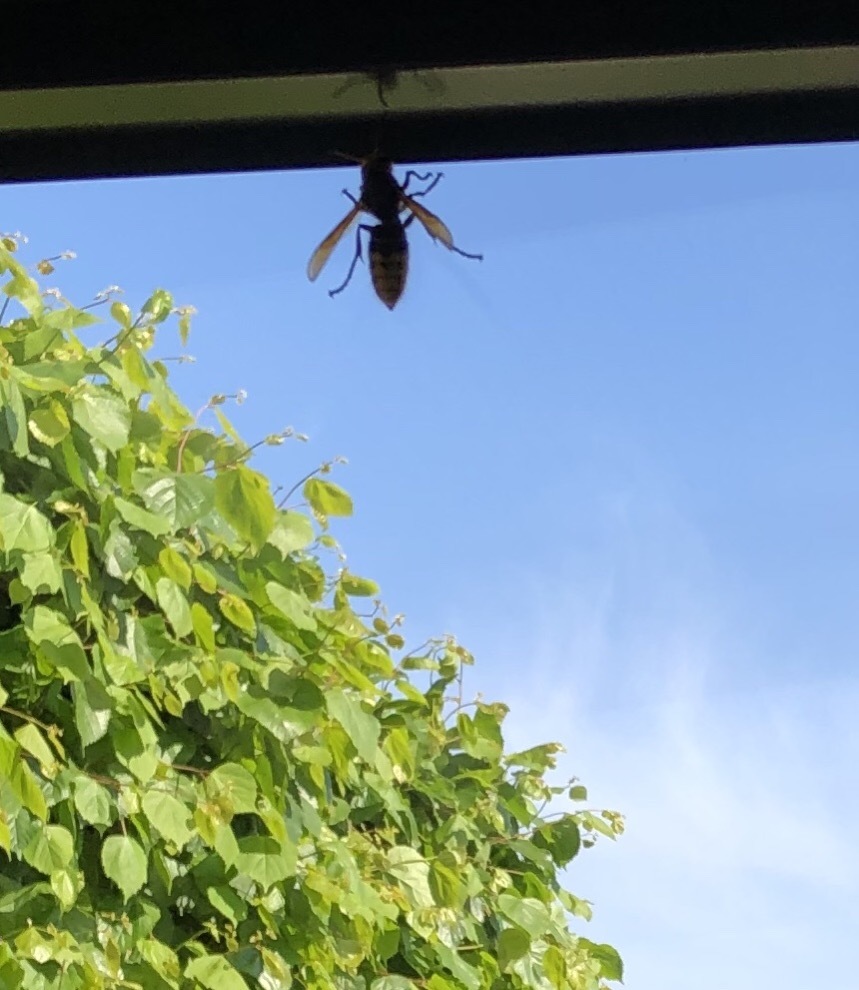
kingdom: Animalia
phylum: Arthropoda
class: Insecta
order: Hymenoptera
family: Vespidae
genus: Vespa
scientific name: Vespa crabro
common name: Hornet
